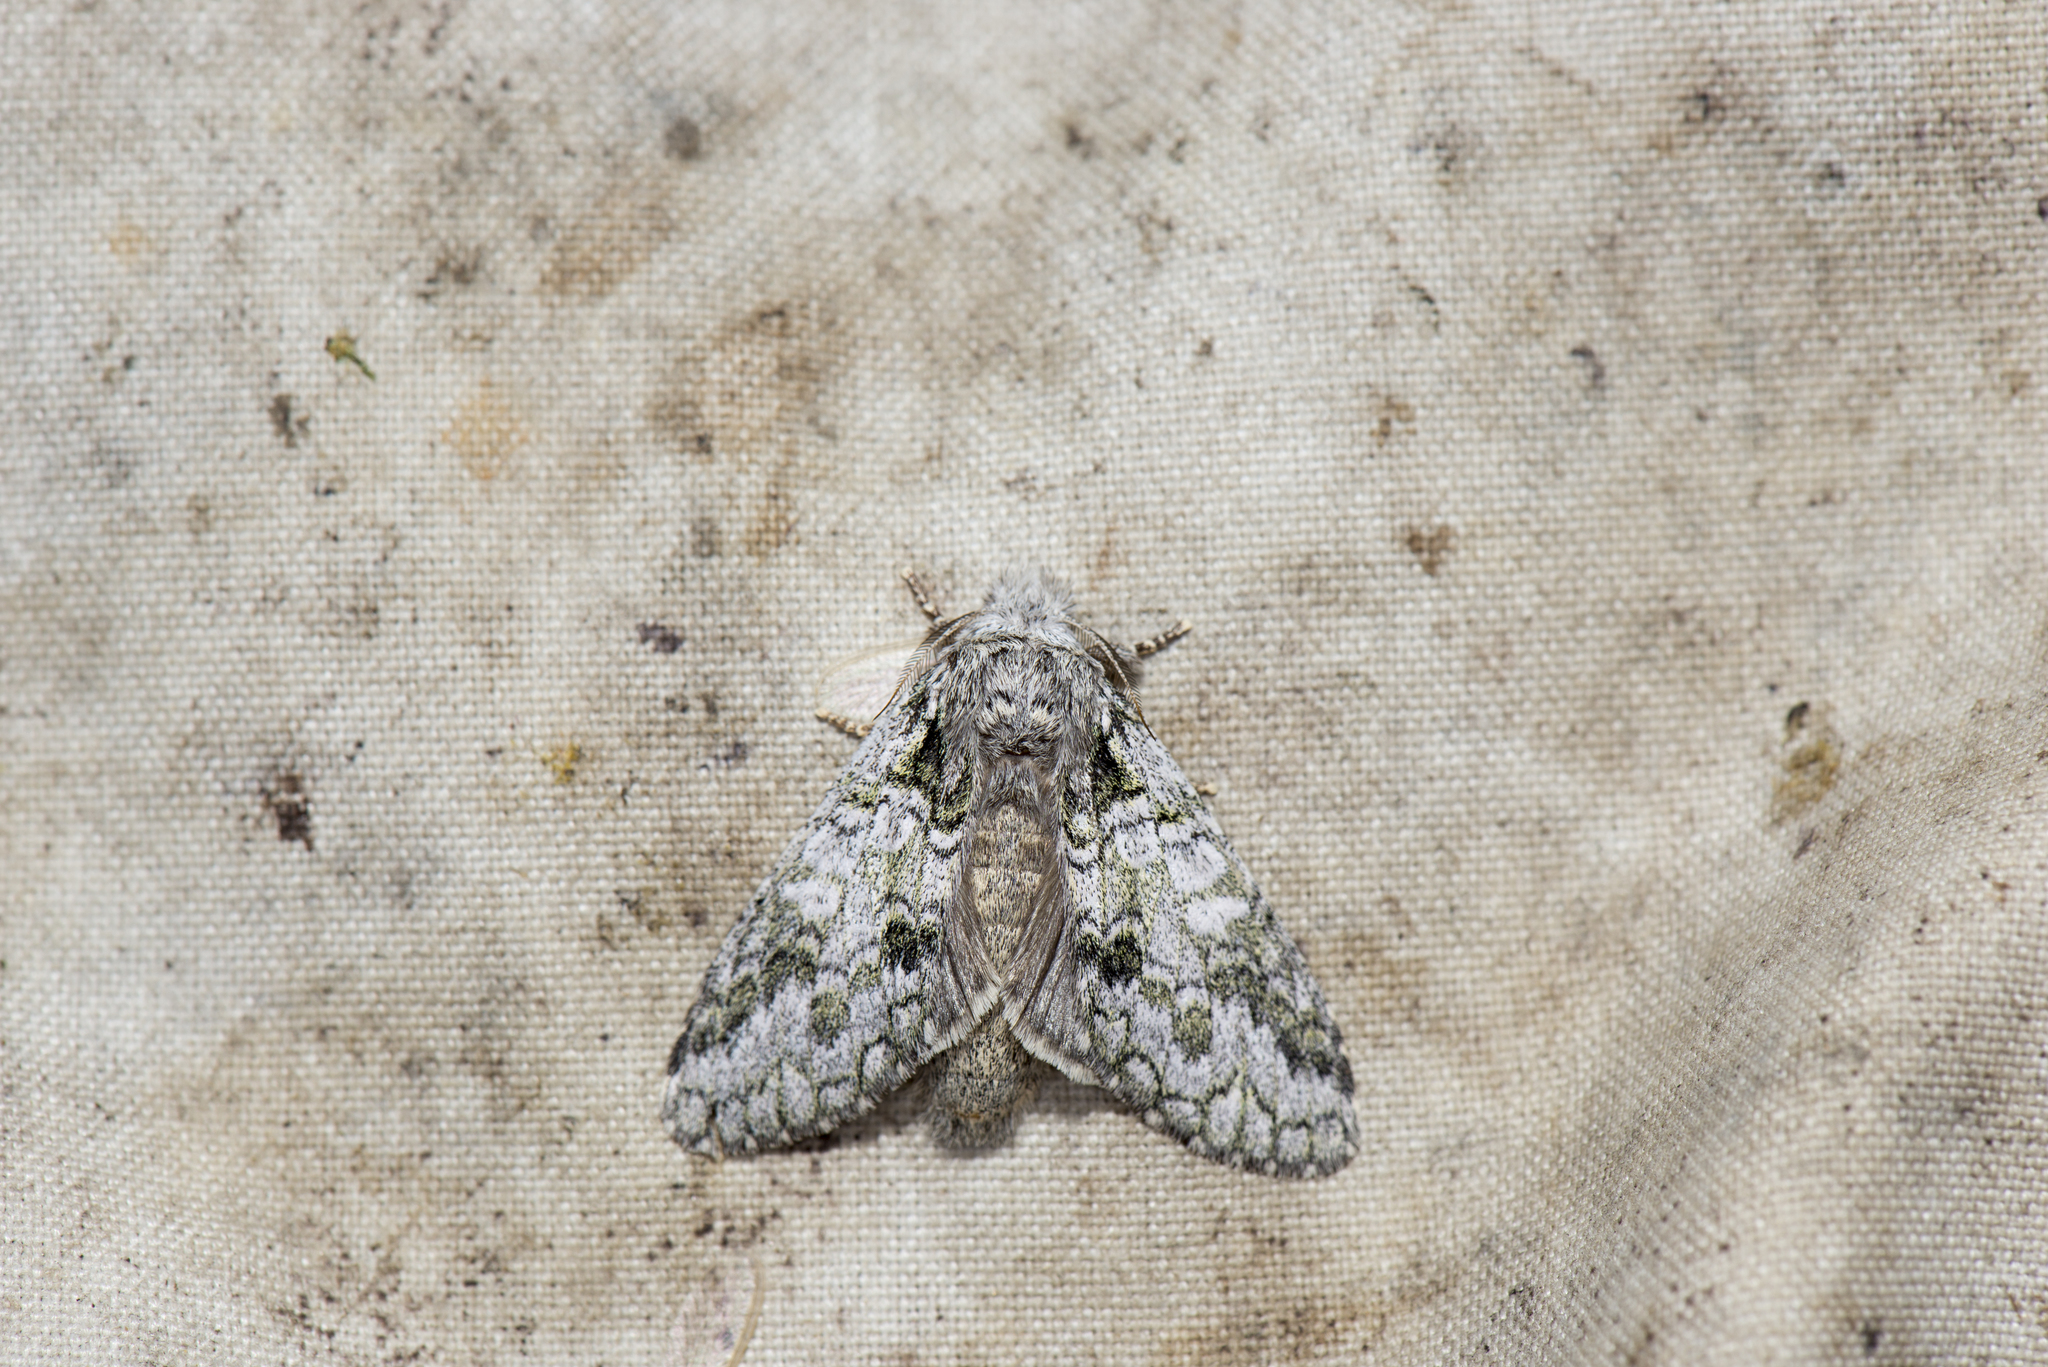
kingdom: Animalia
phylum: Arthropoda
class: Insecta
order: Lepidoptera
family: Notodontidae
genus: Syntypistis
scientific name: Syntypistis pryeri
